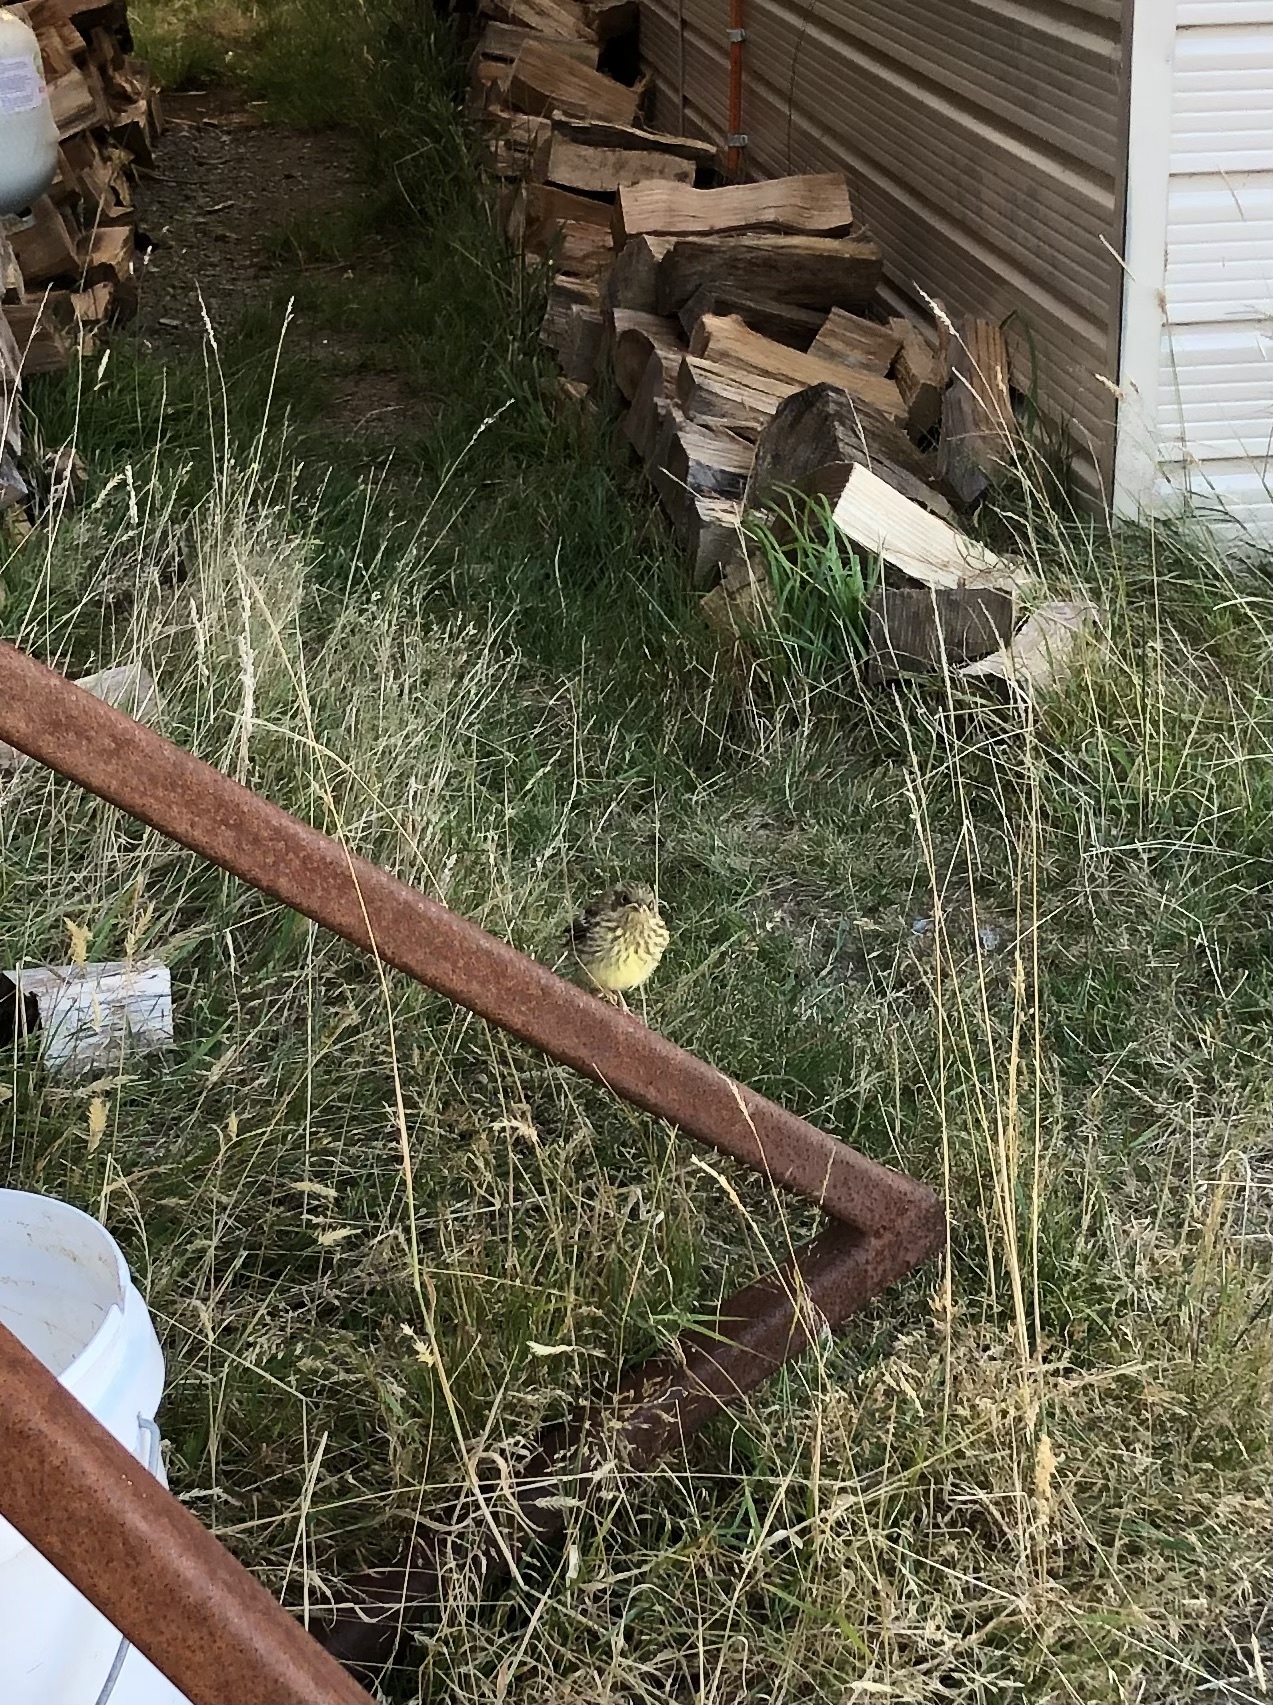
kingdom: Animalia
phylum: Chordata
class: Aves
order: Passeriformes
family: Emberizidae
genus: Emberiza
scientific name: Emberiza citrinella
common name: Yellowhammer
